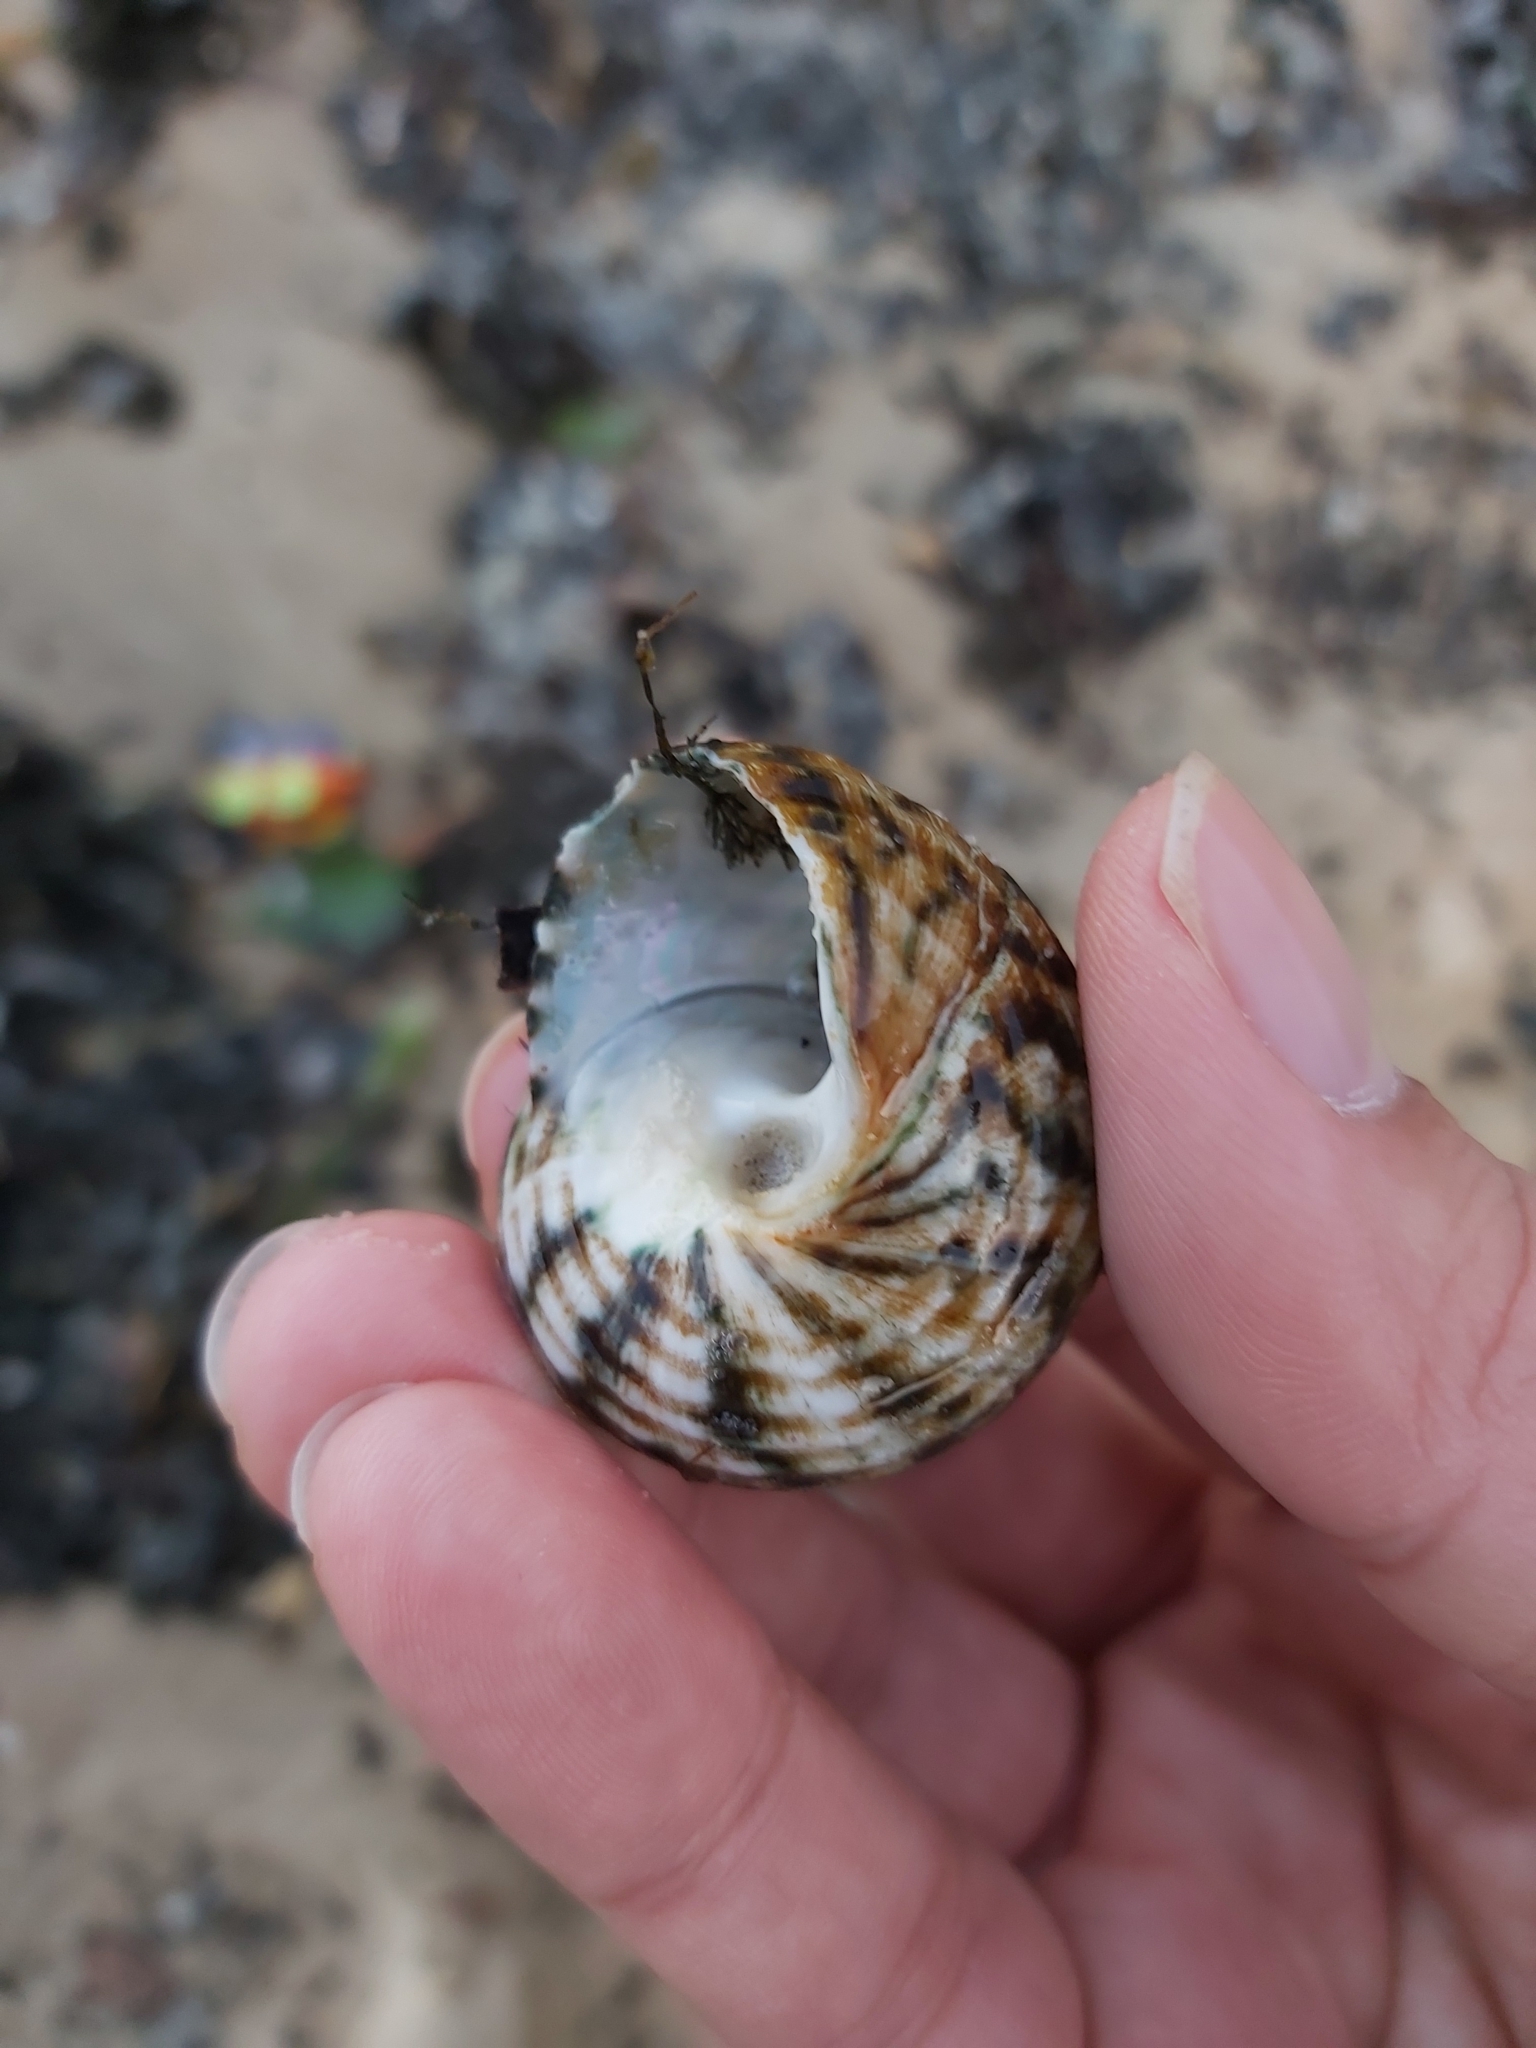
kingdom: Animalia
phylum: Mollusca
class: Gastropoda
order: Trochida
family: Turbinidae
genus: Lunella
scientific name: Lunella undulata
